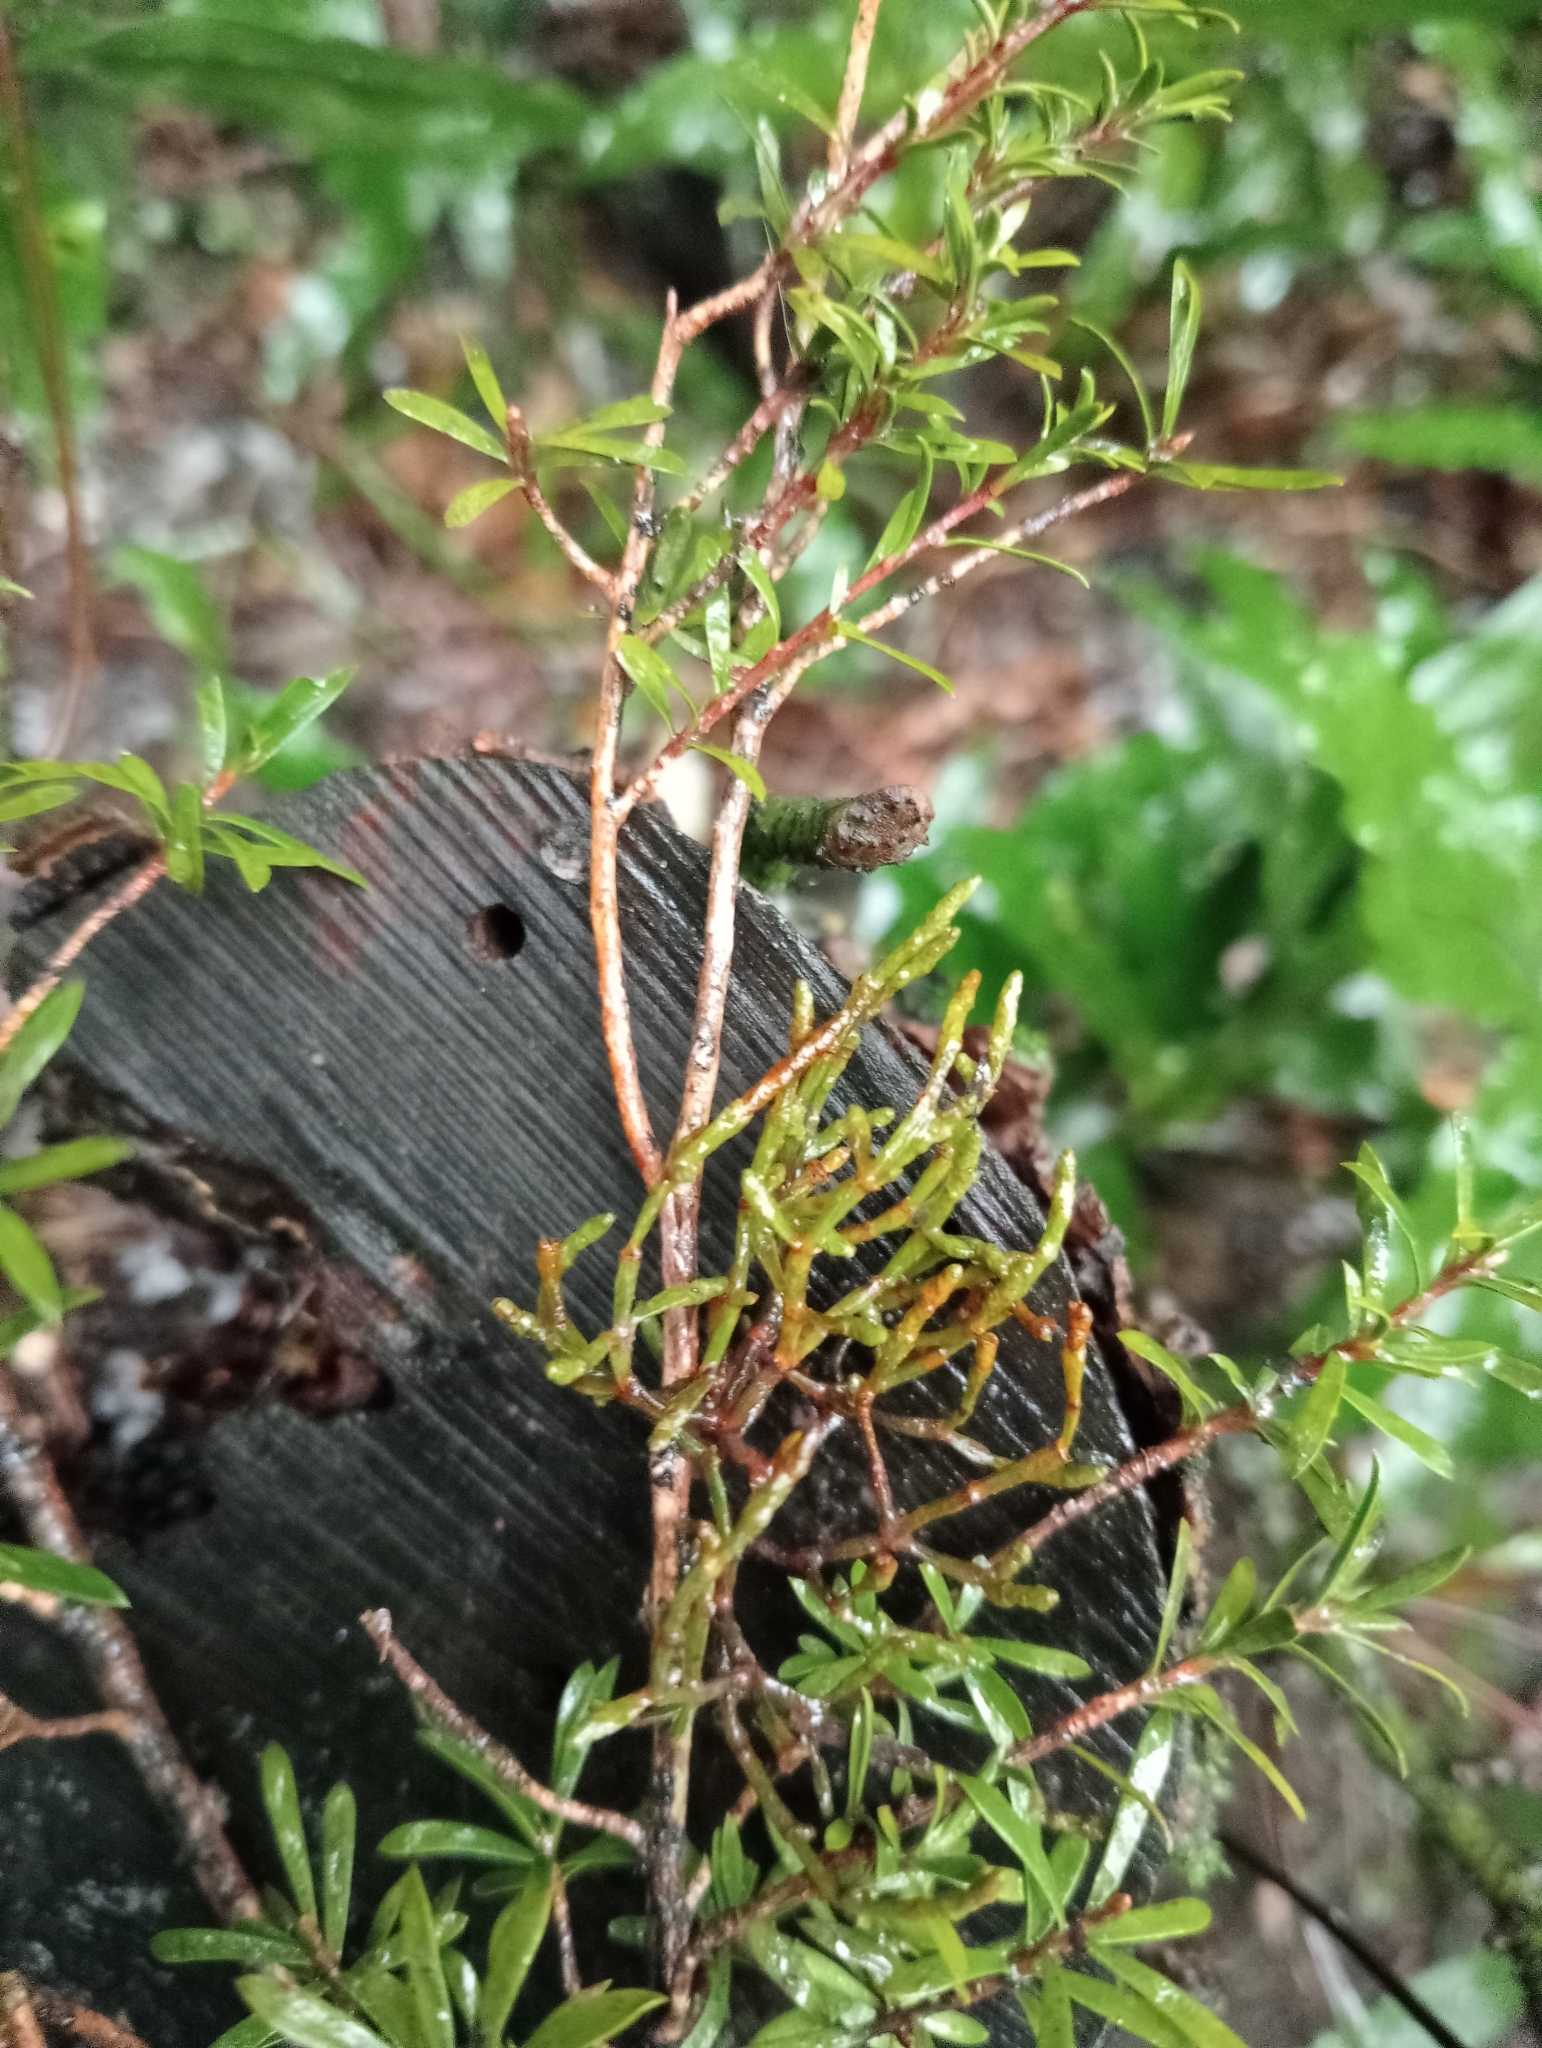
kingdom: Plantae
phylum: Tracheophyta
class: Magnoliopsida
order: Santalales
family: Viscaceae
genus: Korthalsella
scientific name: Korthalsella salicornioides
